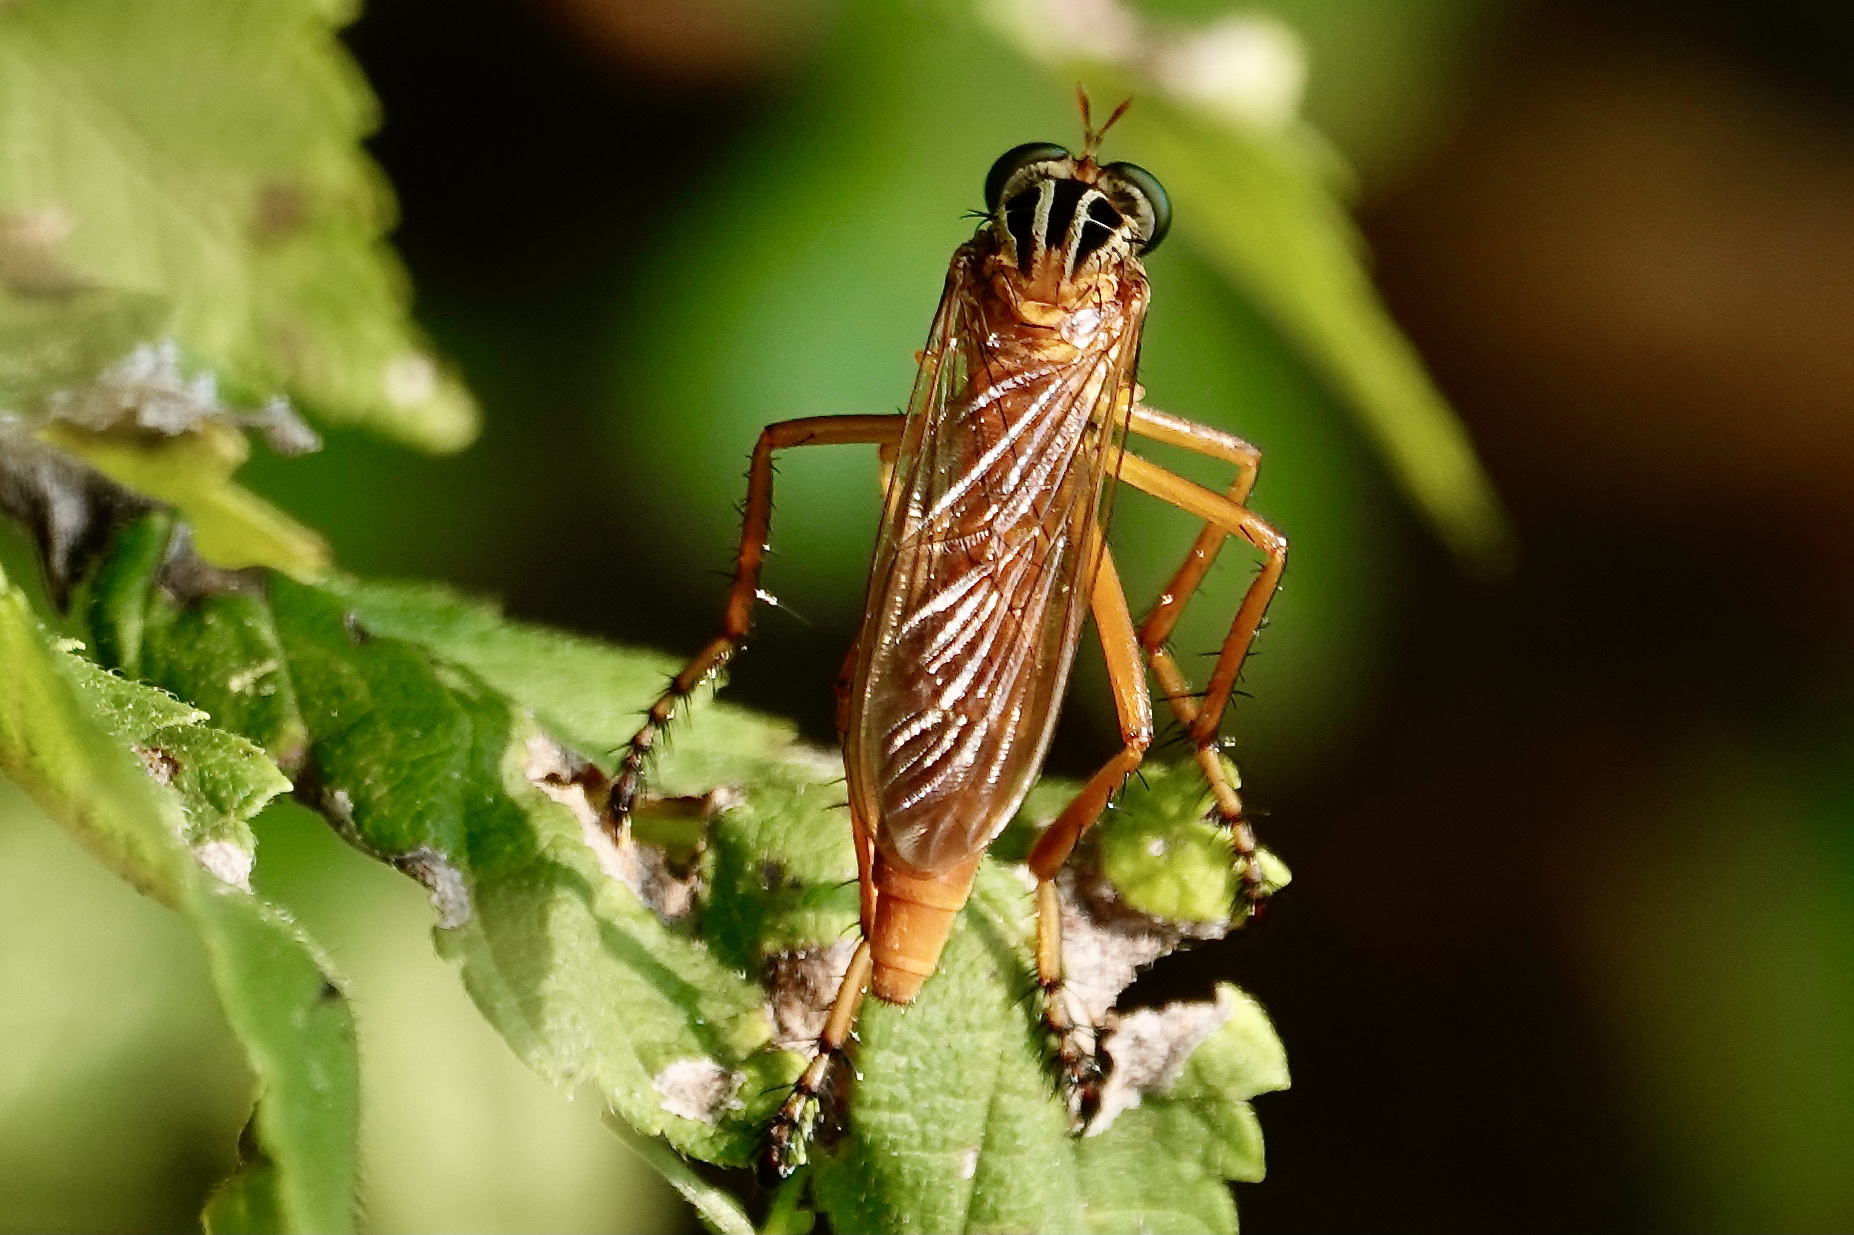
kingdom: Animalia
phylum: Arthropoda
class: Insecta
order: Diptera
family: Asilidae
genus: Diogmites
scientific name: Diogmites neoternatus
